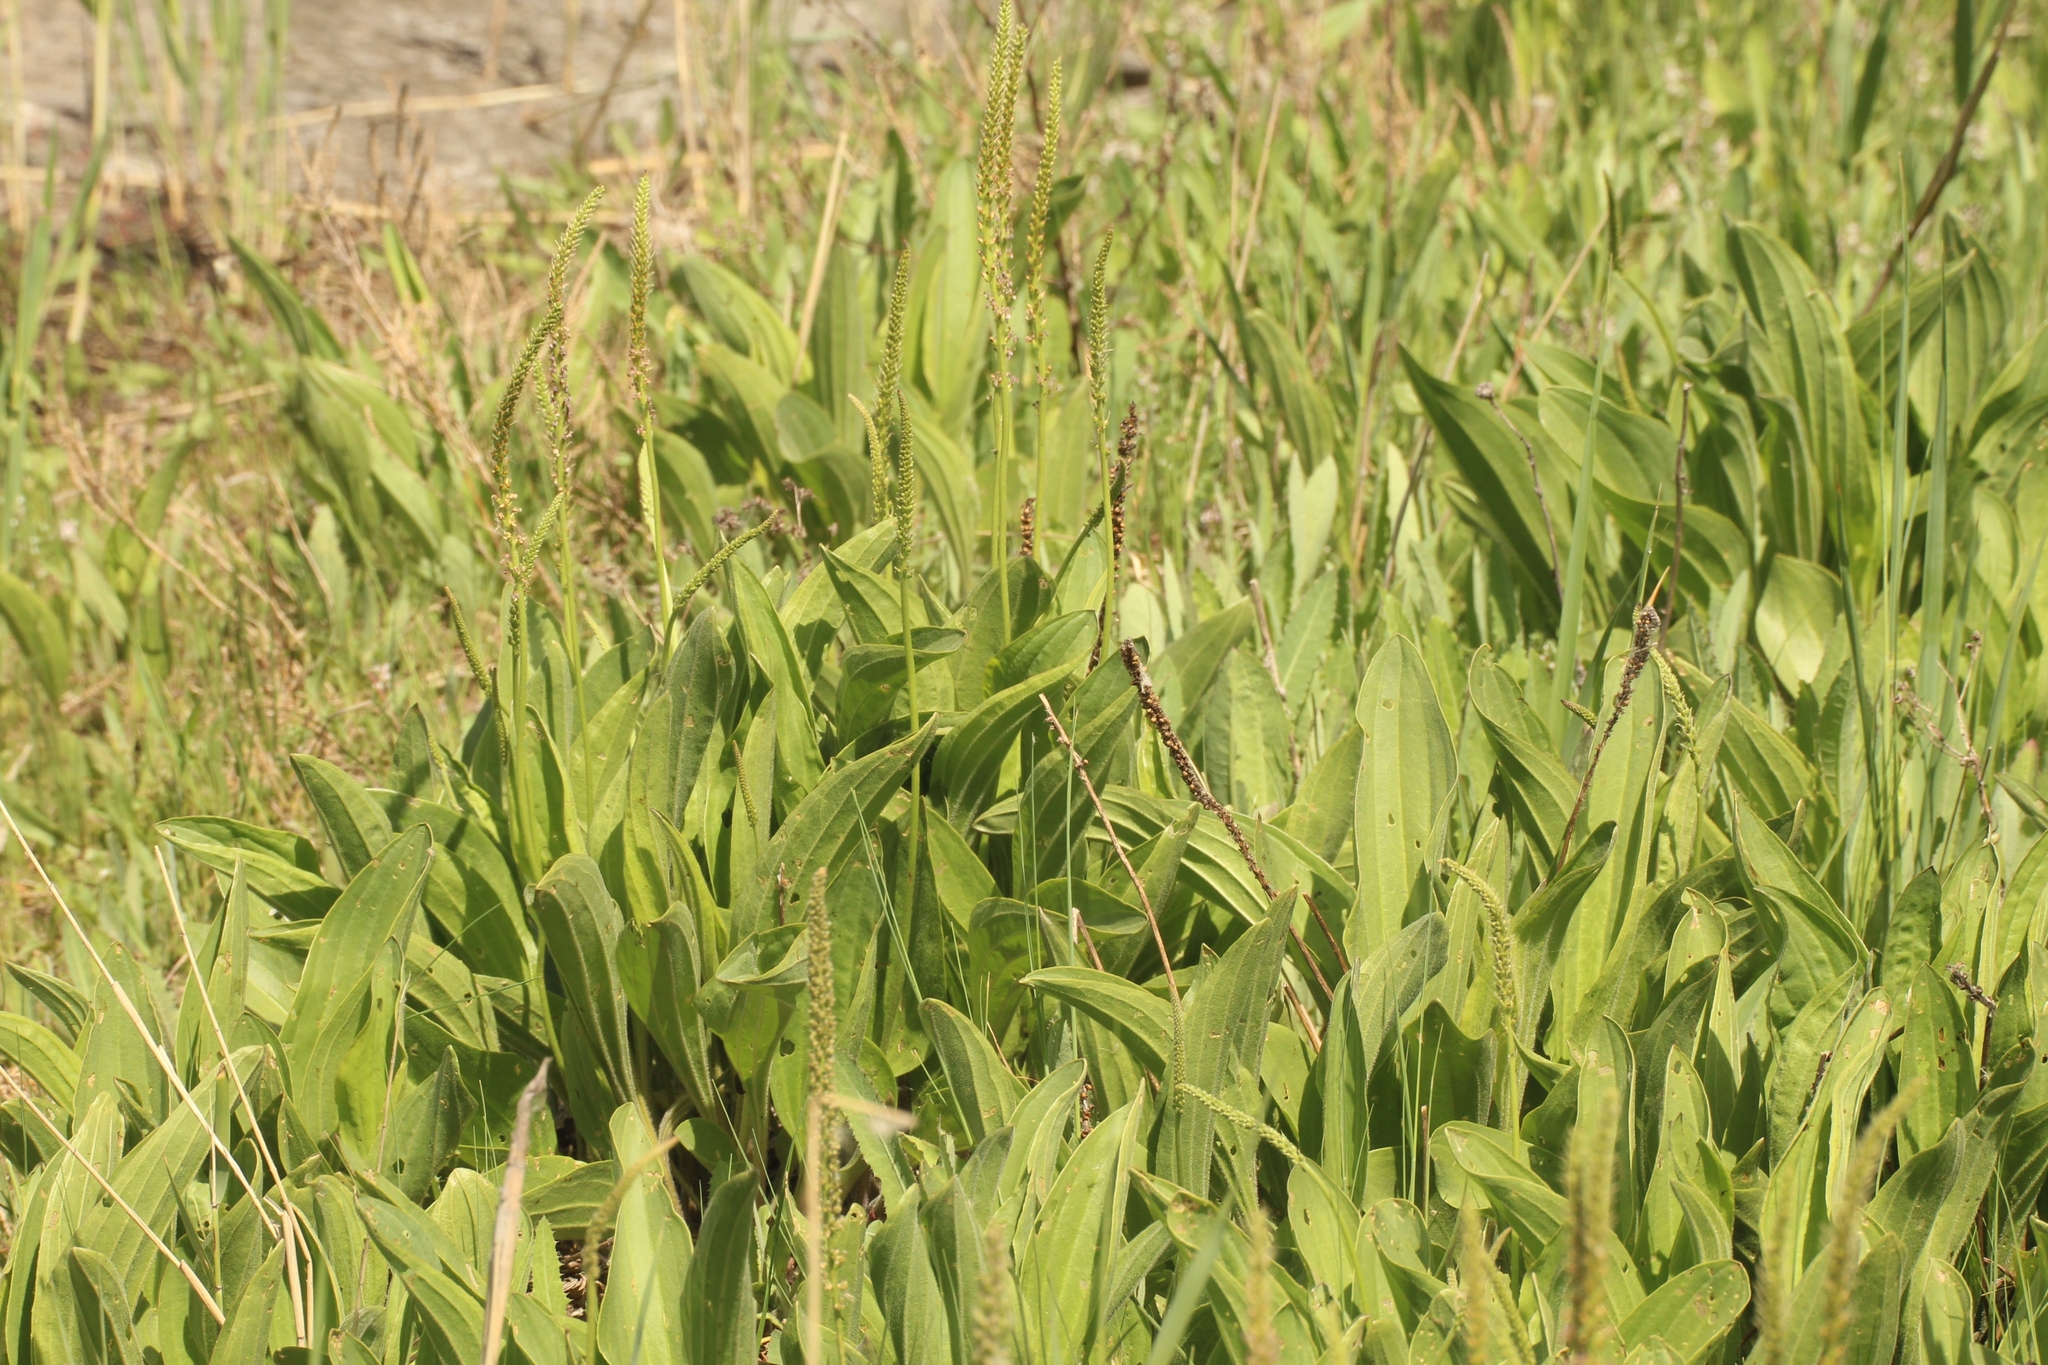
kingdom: Plantae
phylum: Tracheophyta
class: Magnoliopsida
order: Lamiales
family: Plantaginaceae
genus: Plantago
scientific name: Plantago cornuti
